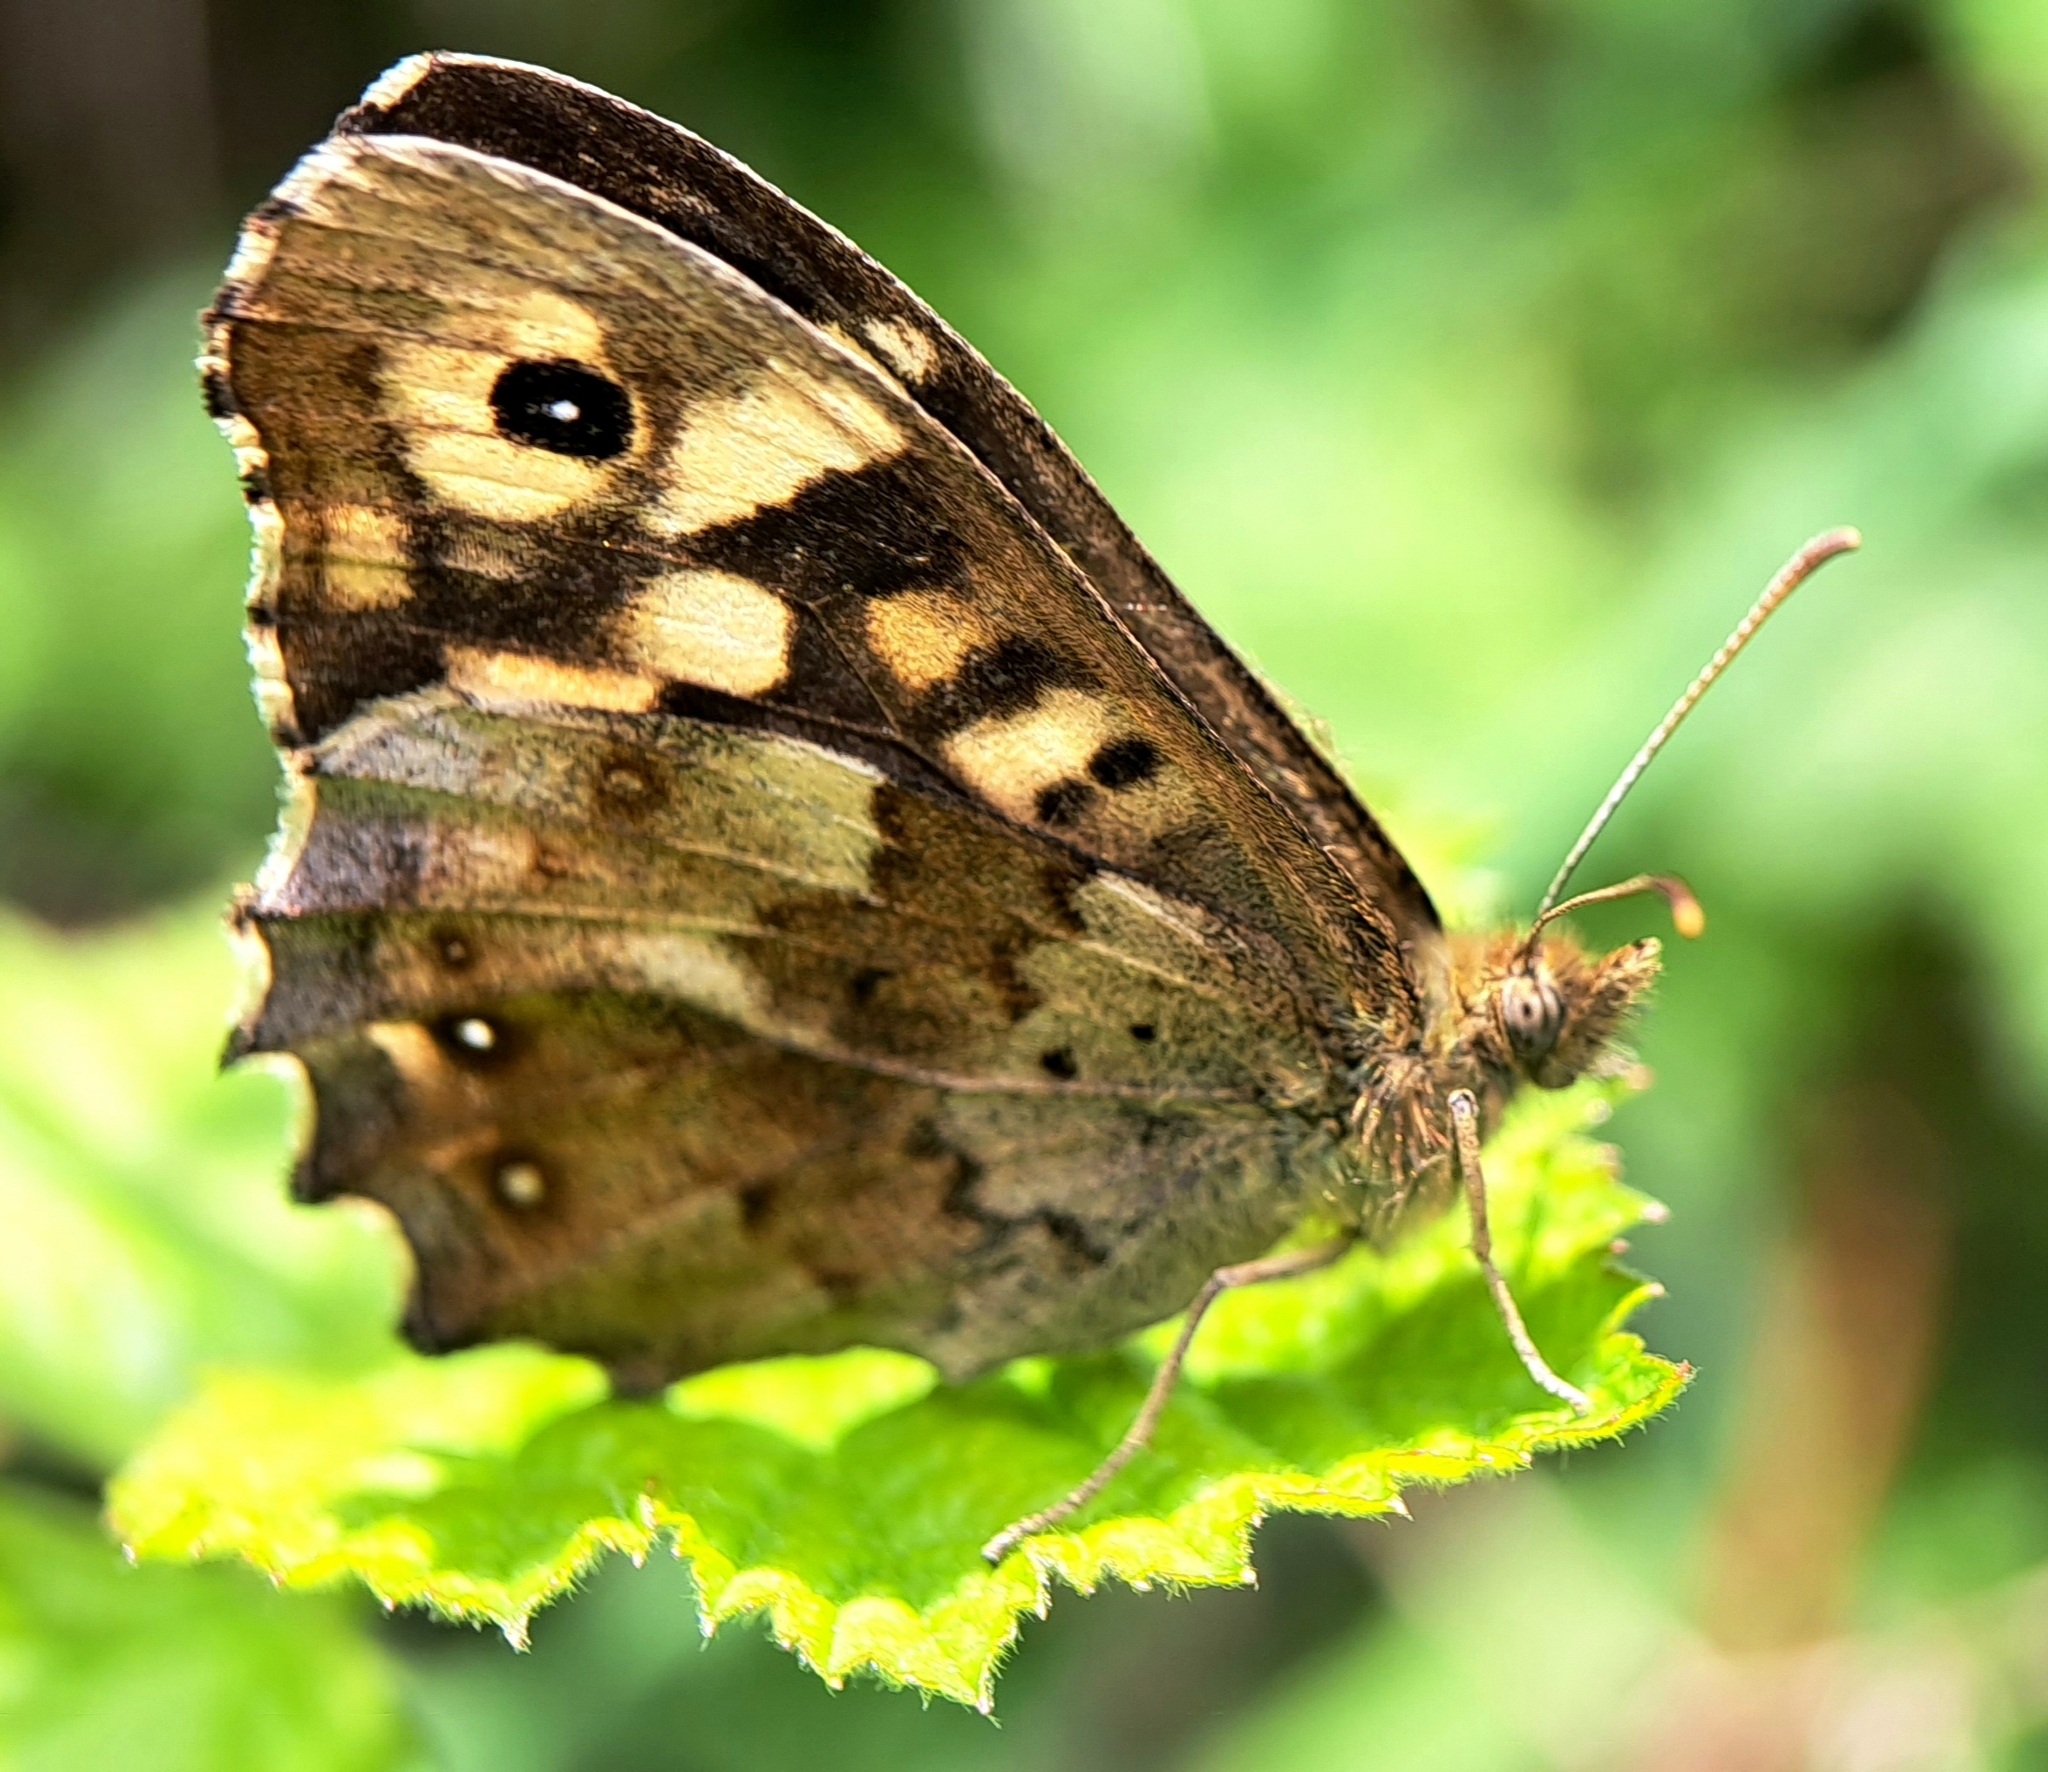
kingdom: Animalia
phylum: Arthropoda
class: Insecta
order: Lepidoptera
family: Nymphalidae
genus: Pararge
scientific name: Pararge aegeria
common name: Speckled wood
